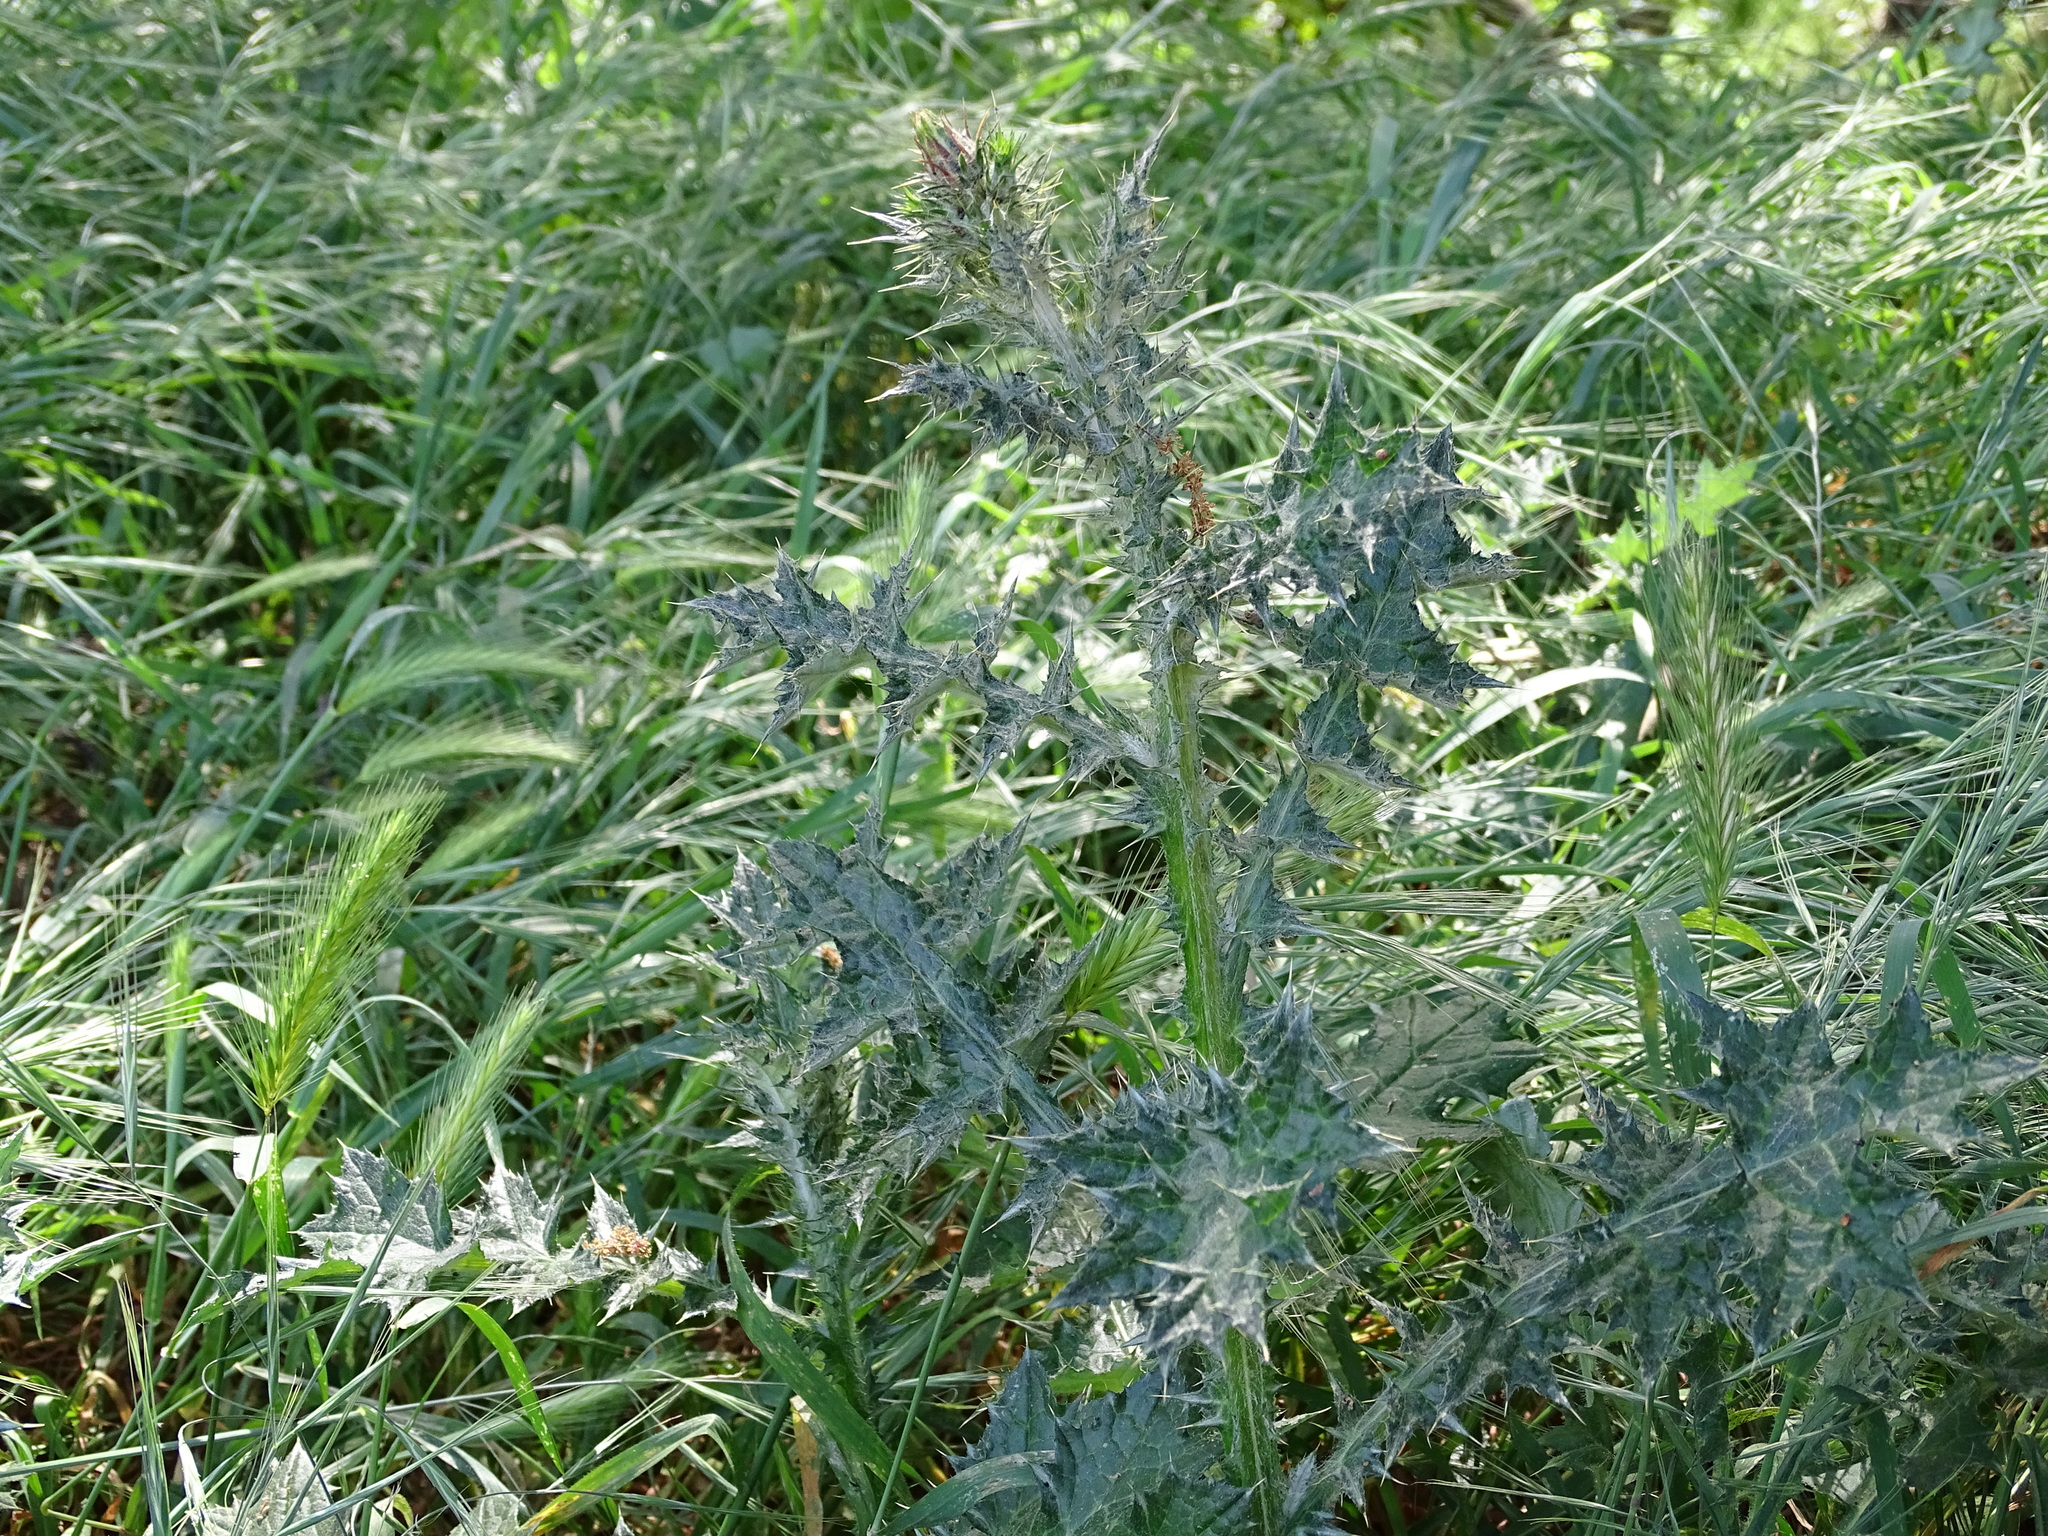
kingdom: Plantae
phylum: Tracheophyta
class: Magnoliopsida
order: Asterales
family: Asteraceae
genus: Carduus
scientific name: Carduus pycnocephalus
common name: Plymouth thistle
